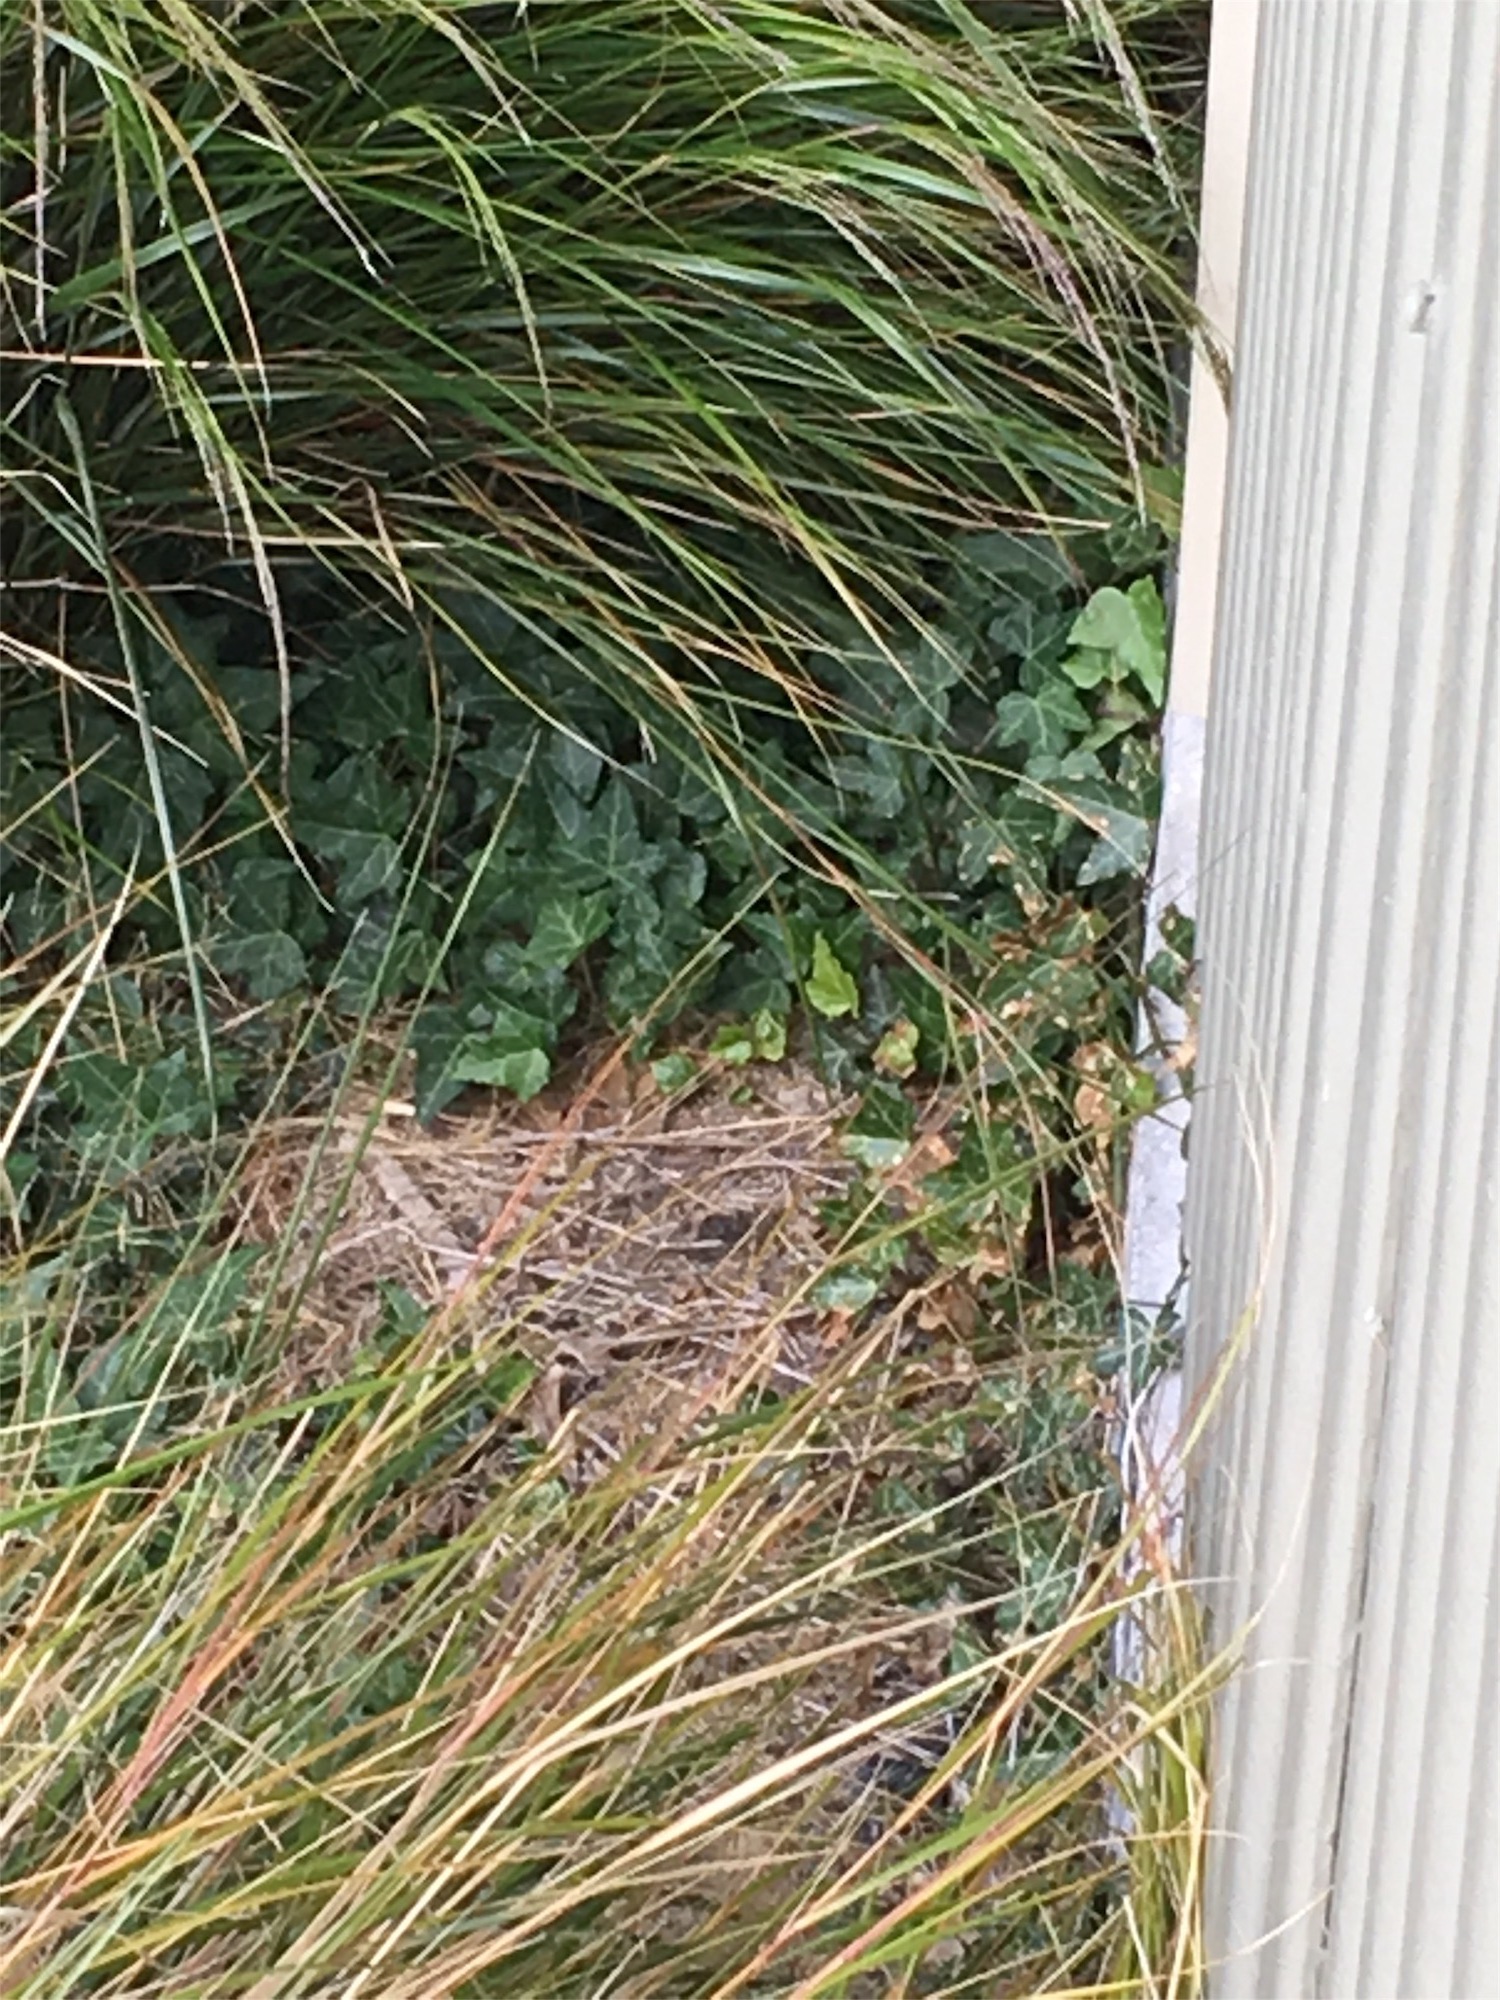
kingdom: Plantae
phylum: Tracheophyta
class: Magnoliopsida
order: Apiales
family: Araliaceae
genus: Hedera
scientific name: Hedera helix
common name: Ivy
